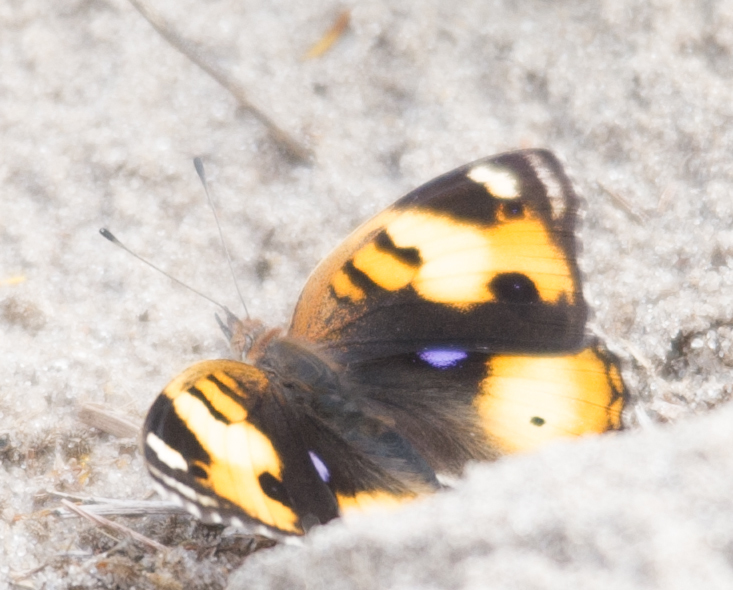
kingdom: Animalia
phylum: Arthropoda
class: Insecta
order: Lepidoptera
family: Nymphalidae
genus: Junonia
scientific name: Junonia hierta
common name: Yellow pansy
